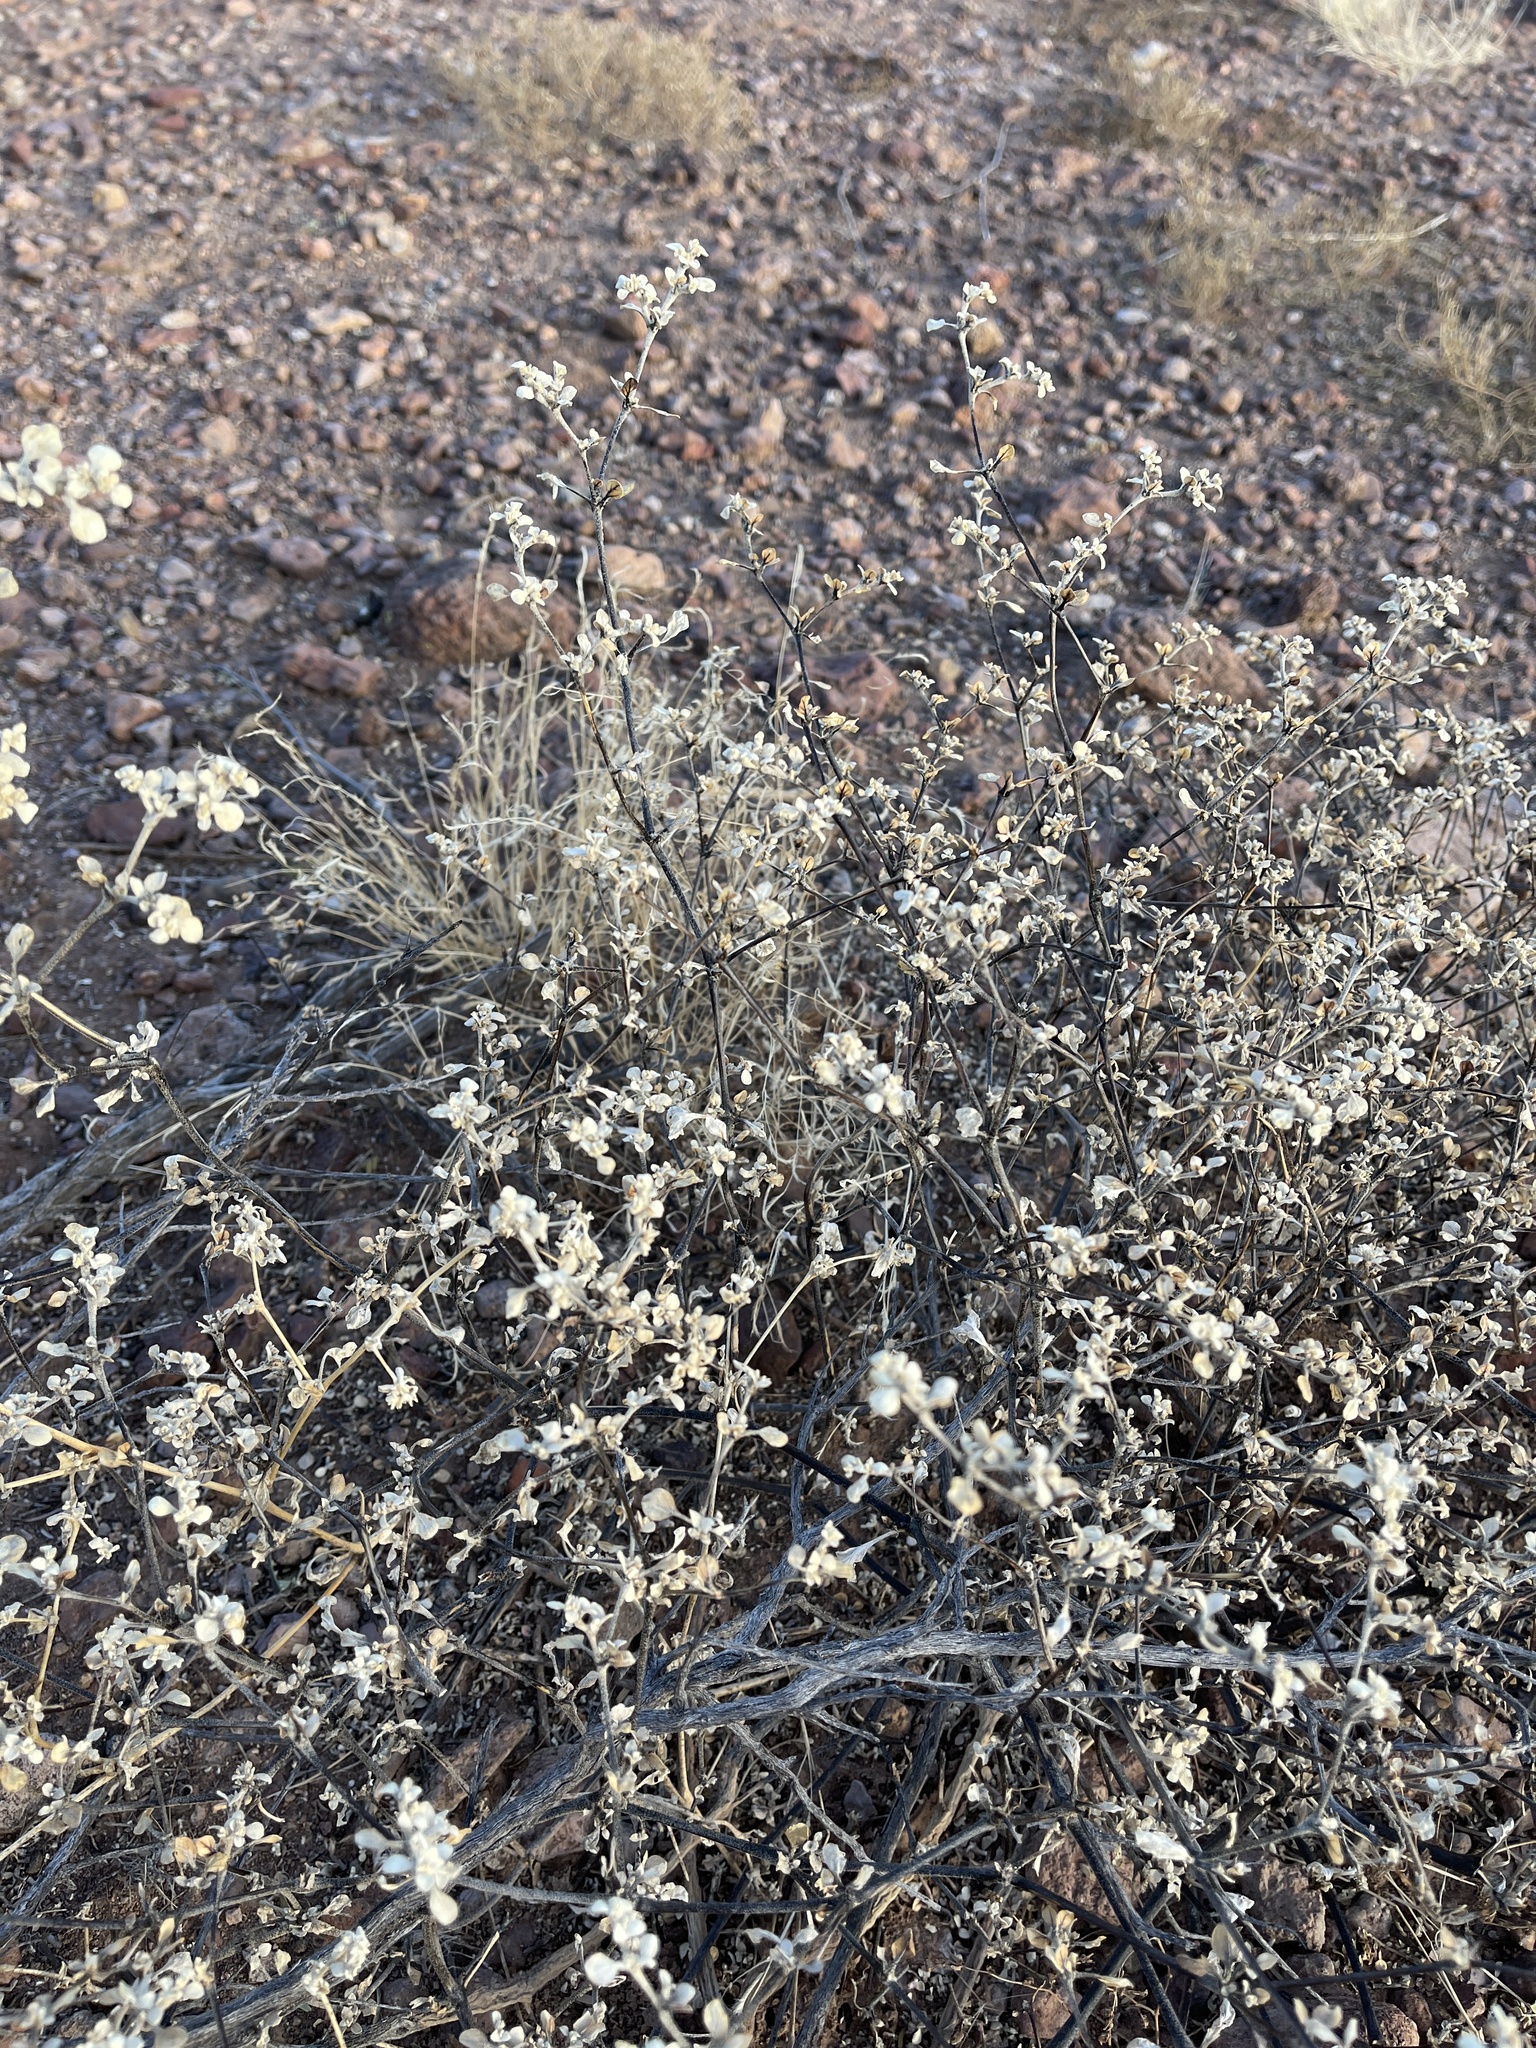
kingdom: Plantae
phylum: Tracheophyta
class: Magnoliopsida
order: Caryophyllales
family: Amaranthaceae
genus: Tidestromia
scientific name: Tidestromia lanuginosa
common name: Woolly tidestromia
